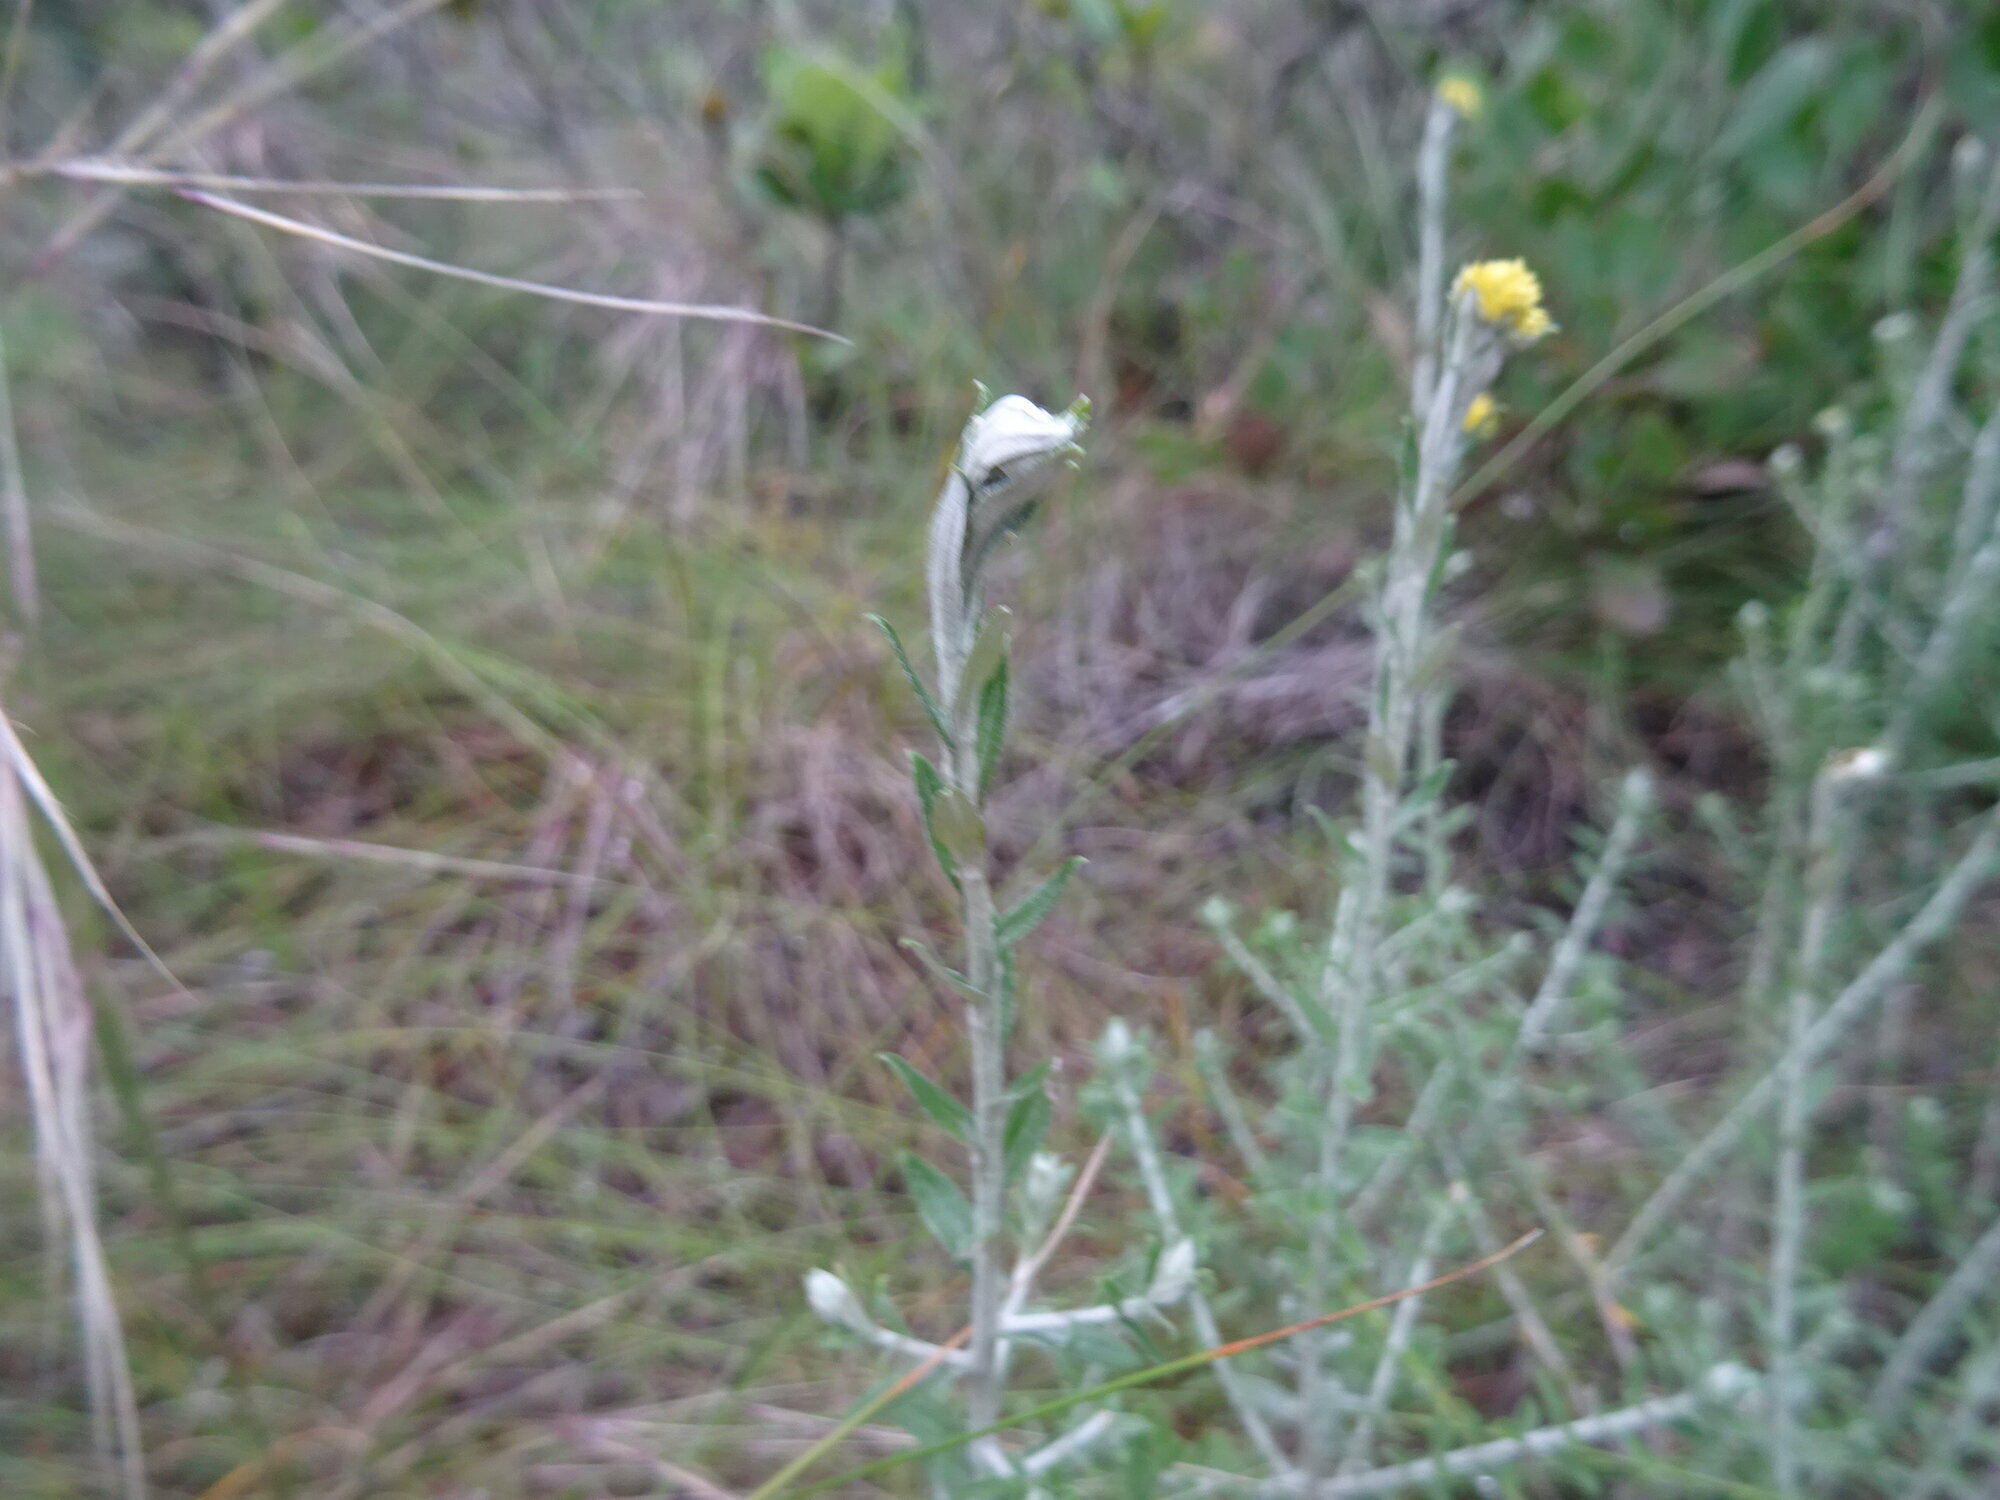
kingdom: Plantae
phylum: Tracheophyta
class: Magnoliopsida
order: Asterales
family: Asteraceae
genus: Helichrysum
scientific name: Helichrysum cymosum
